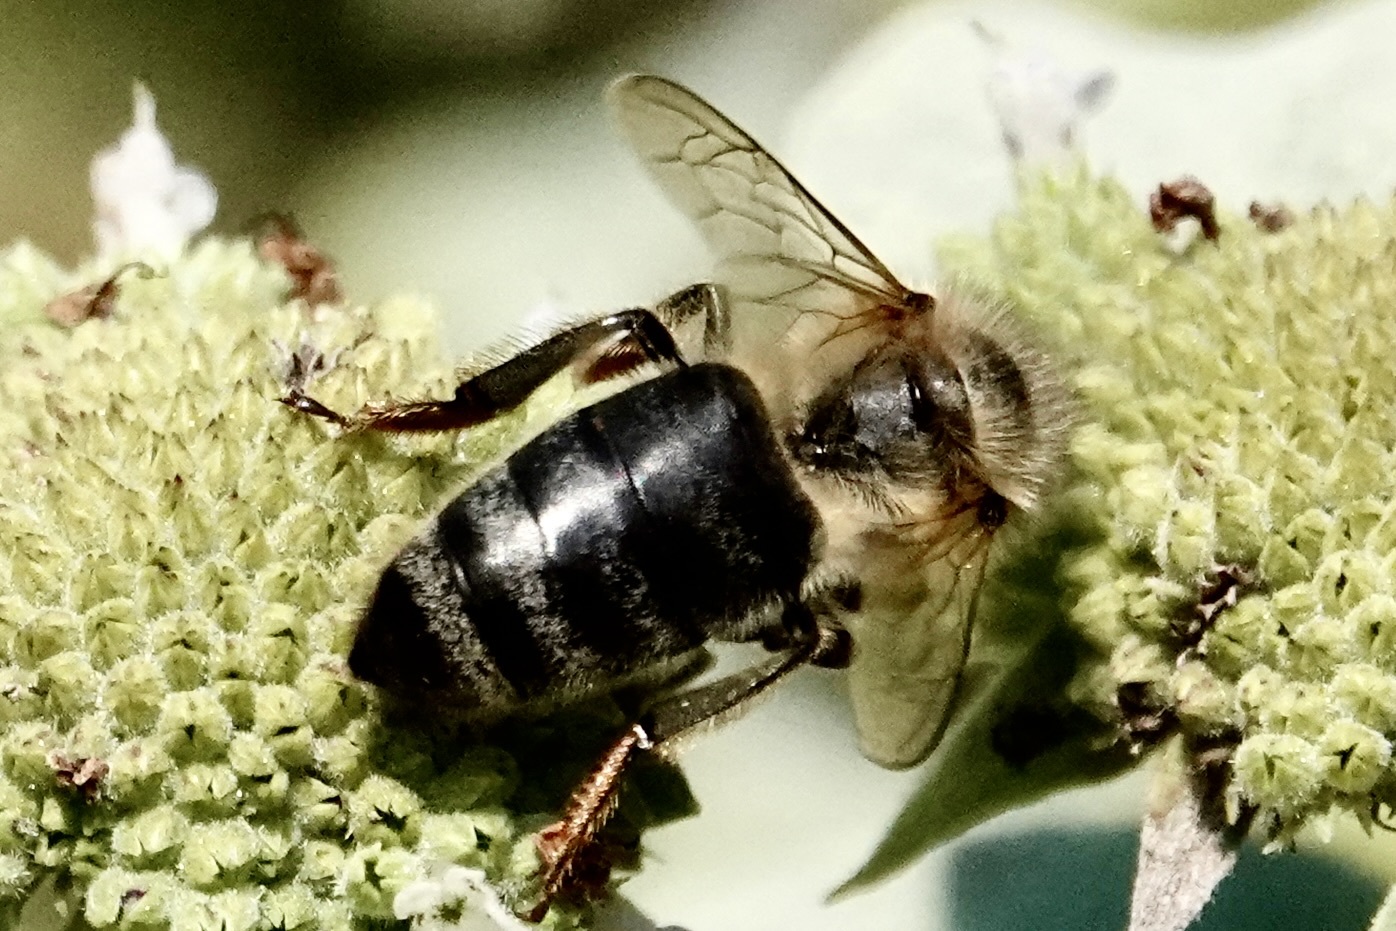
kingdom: Animalia
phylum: Arthropoda
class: Insecta
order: Hymenoptera
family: Apidae
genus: Apis
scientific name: Apis mellifera
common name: Honey bee
